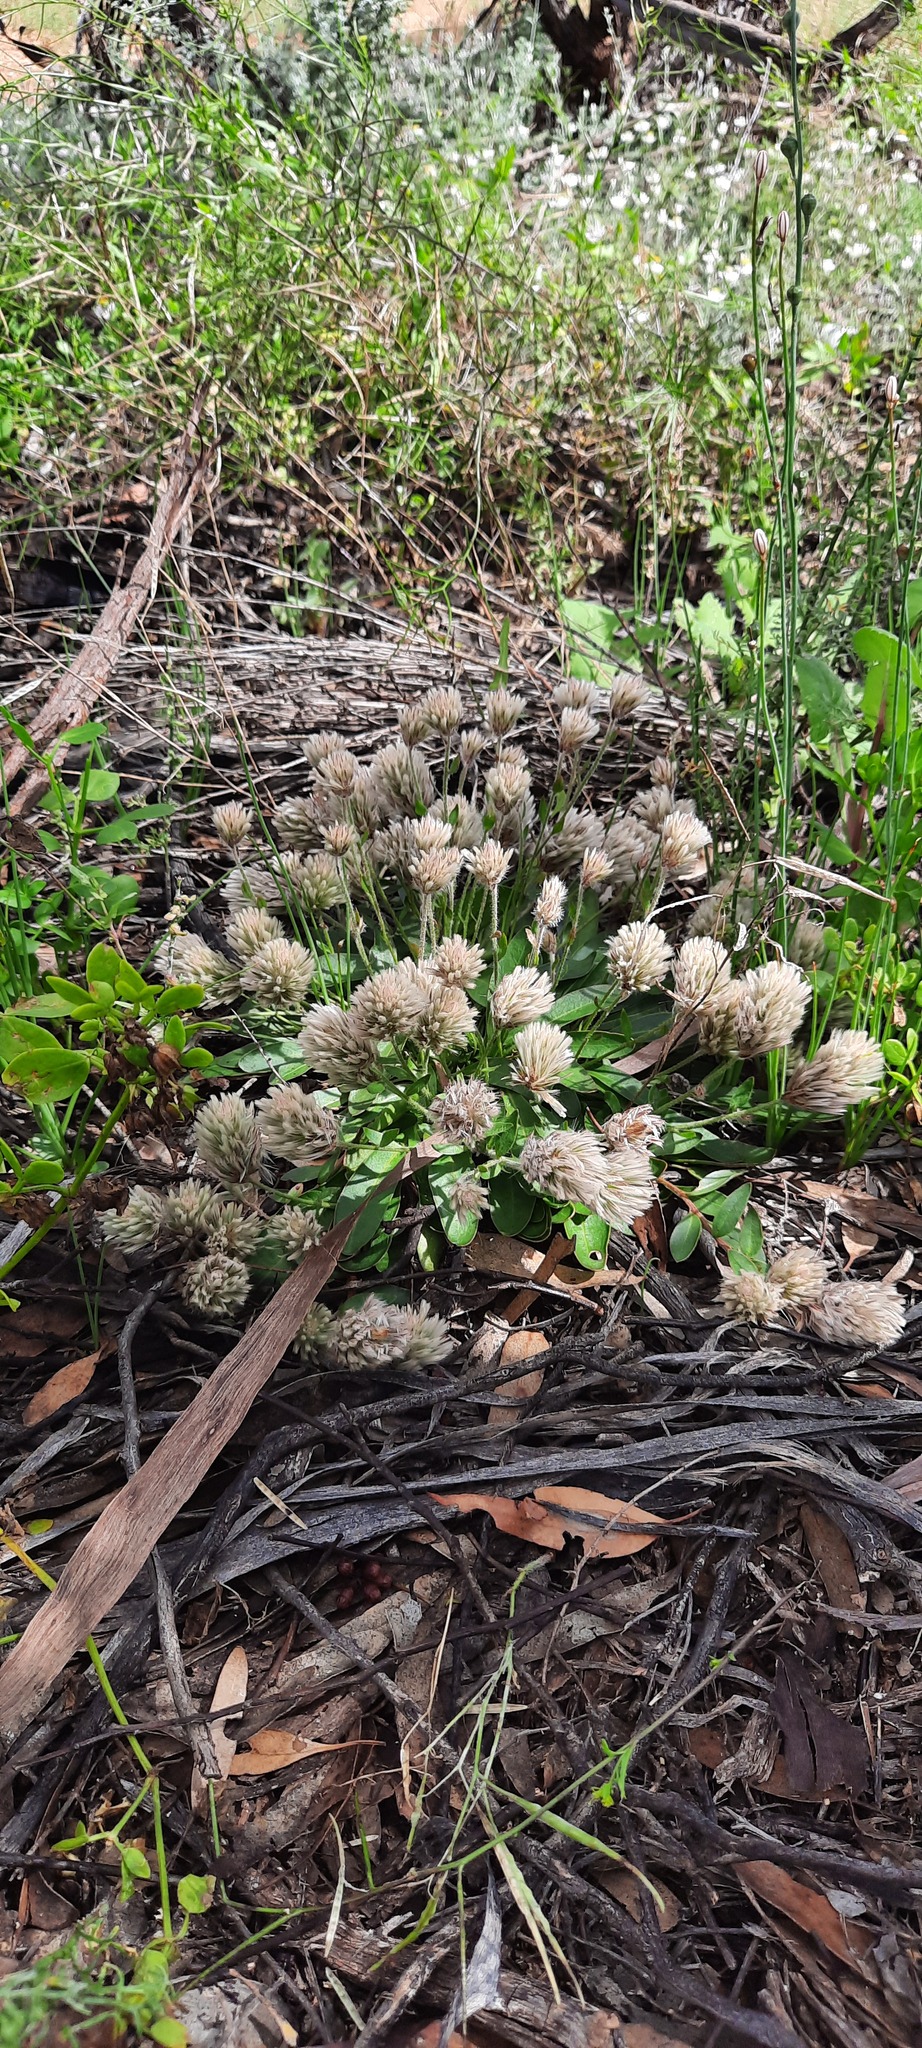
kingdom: Plantae
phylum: Tracheophyta
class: Magnoliopsida
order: Caryophyllales
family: Amaranthaceae
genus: Ptilotus
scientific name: Ptilotus seminudus
